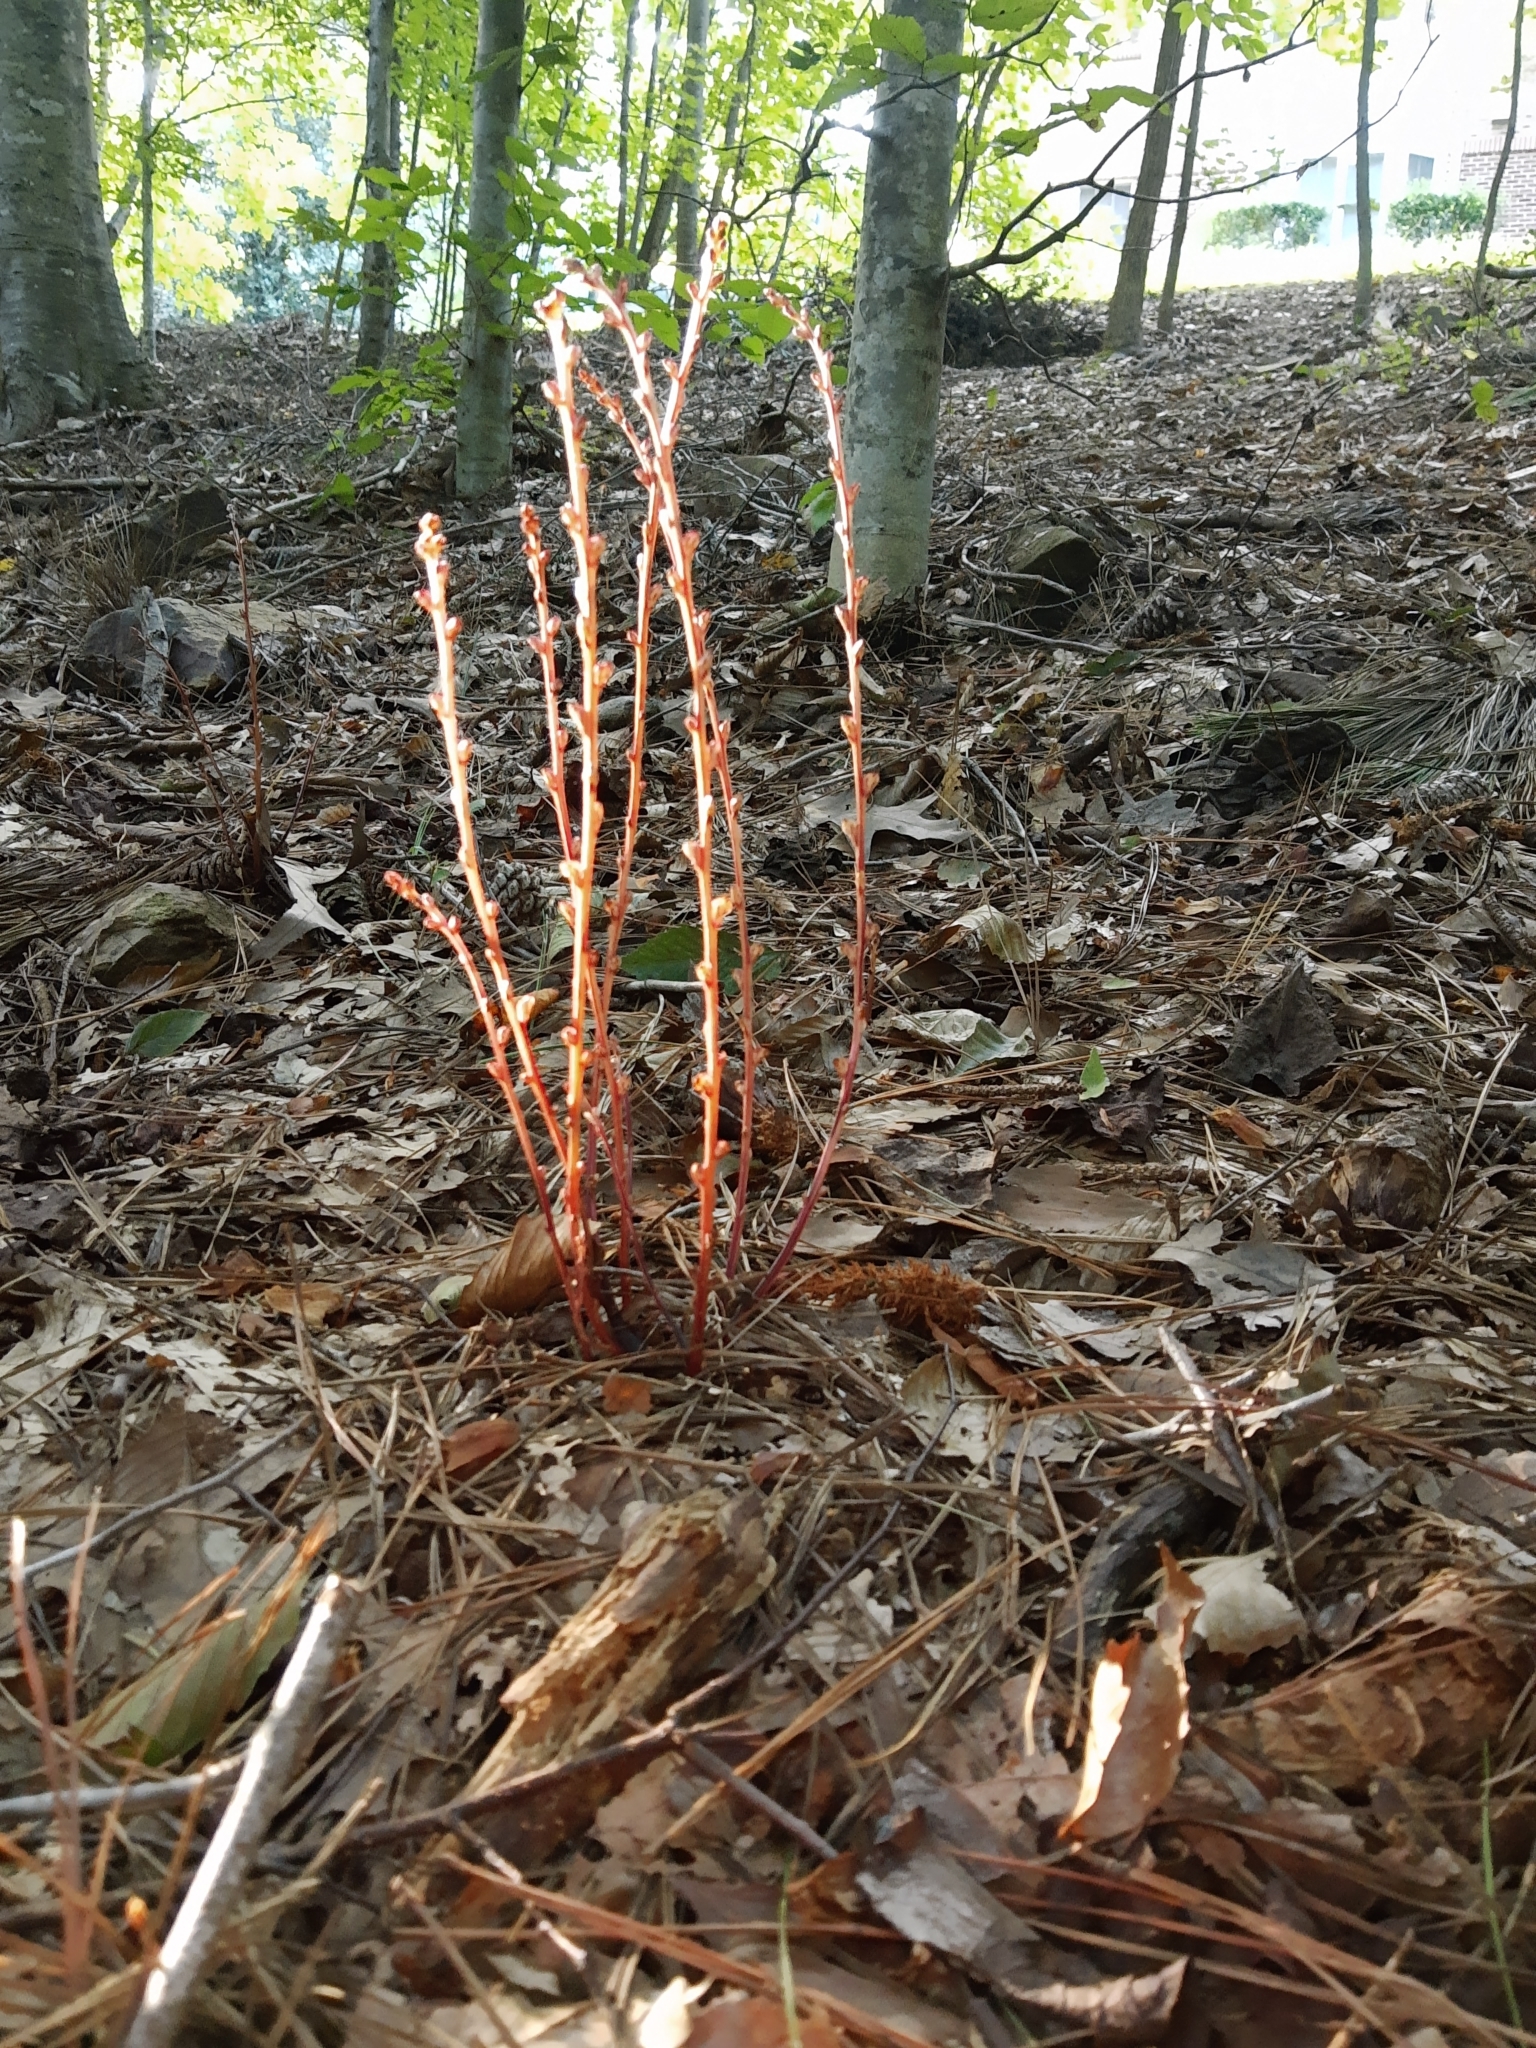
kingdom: Plantae
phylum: Tracheophyta
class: Magnoliopsida
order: Lamiales
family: Orobanchaceae
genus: Epifagus
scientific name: Epifagus virginiana
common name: Beechdrops
